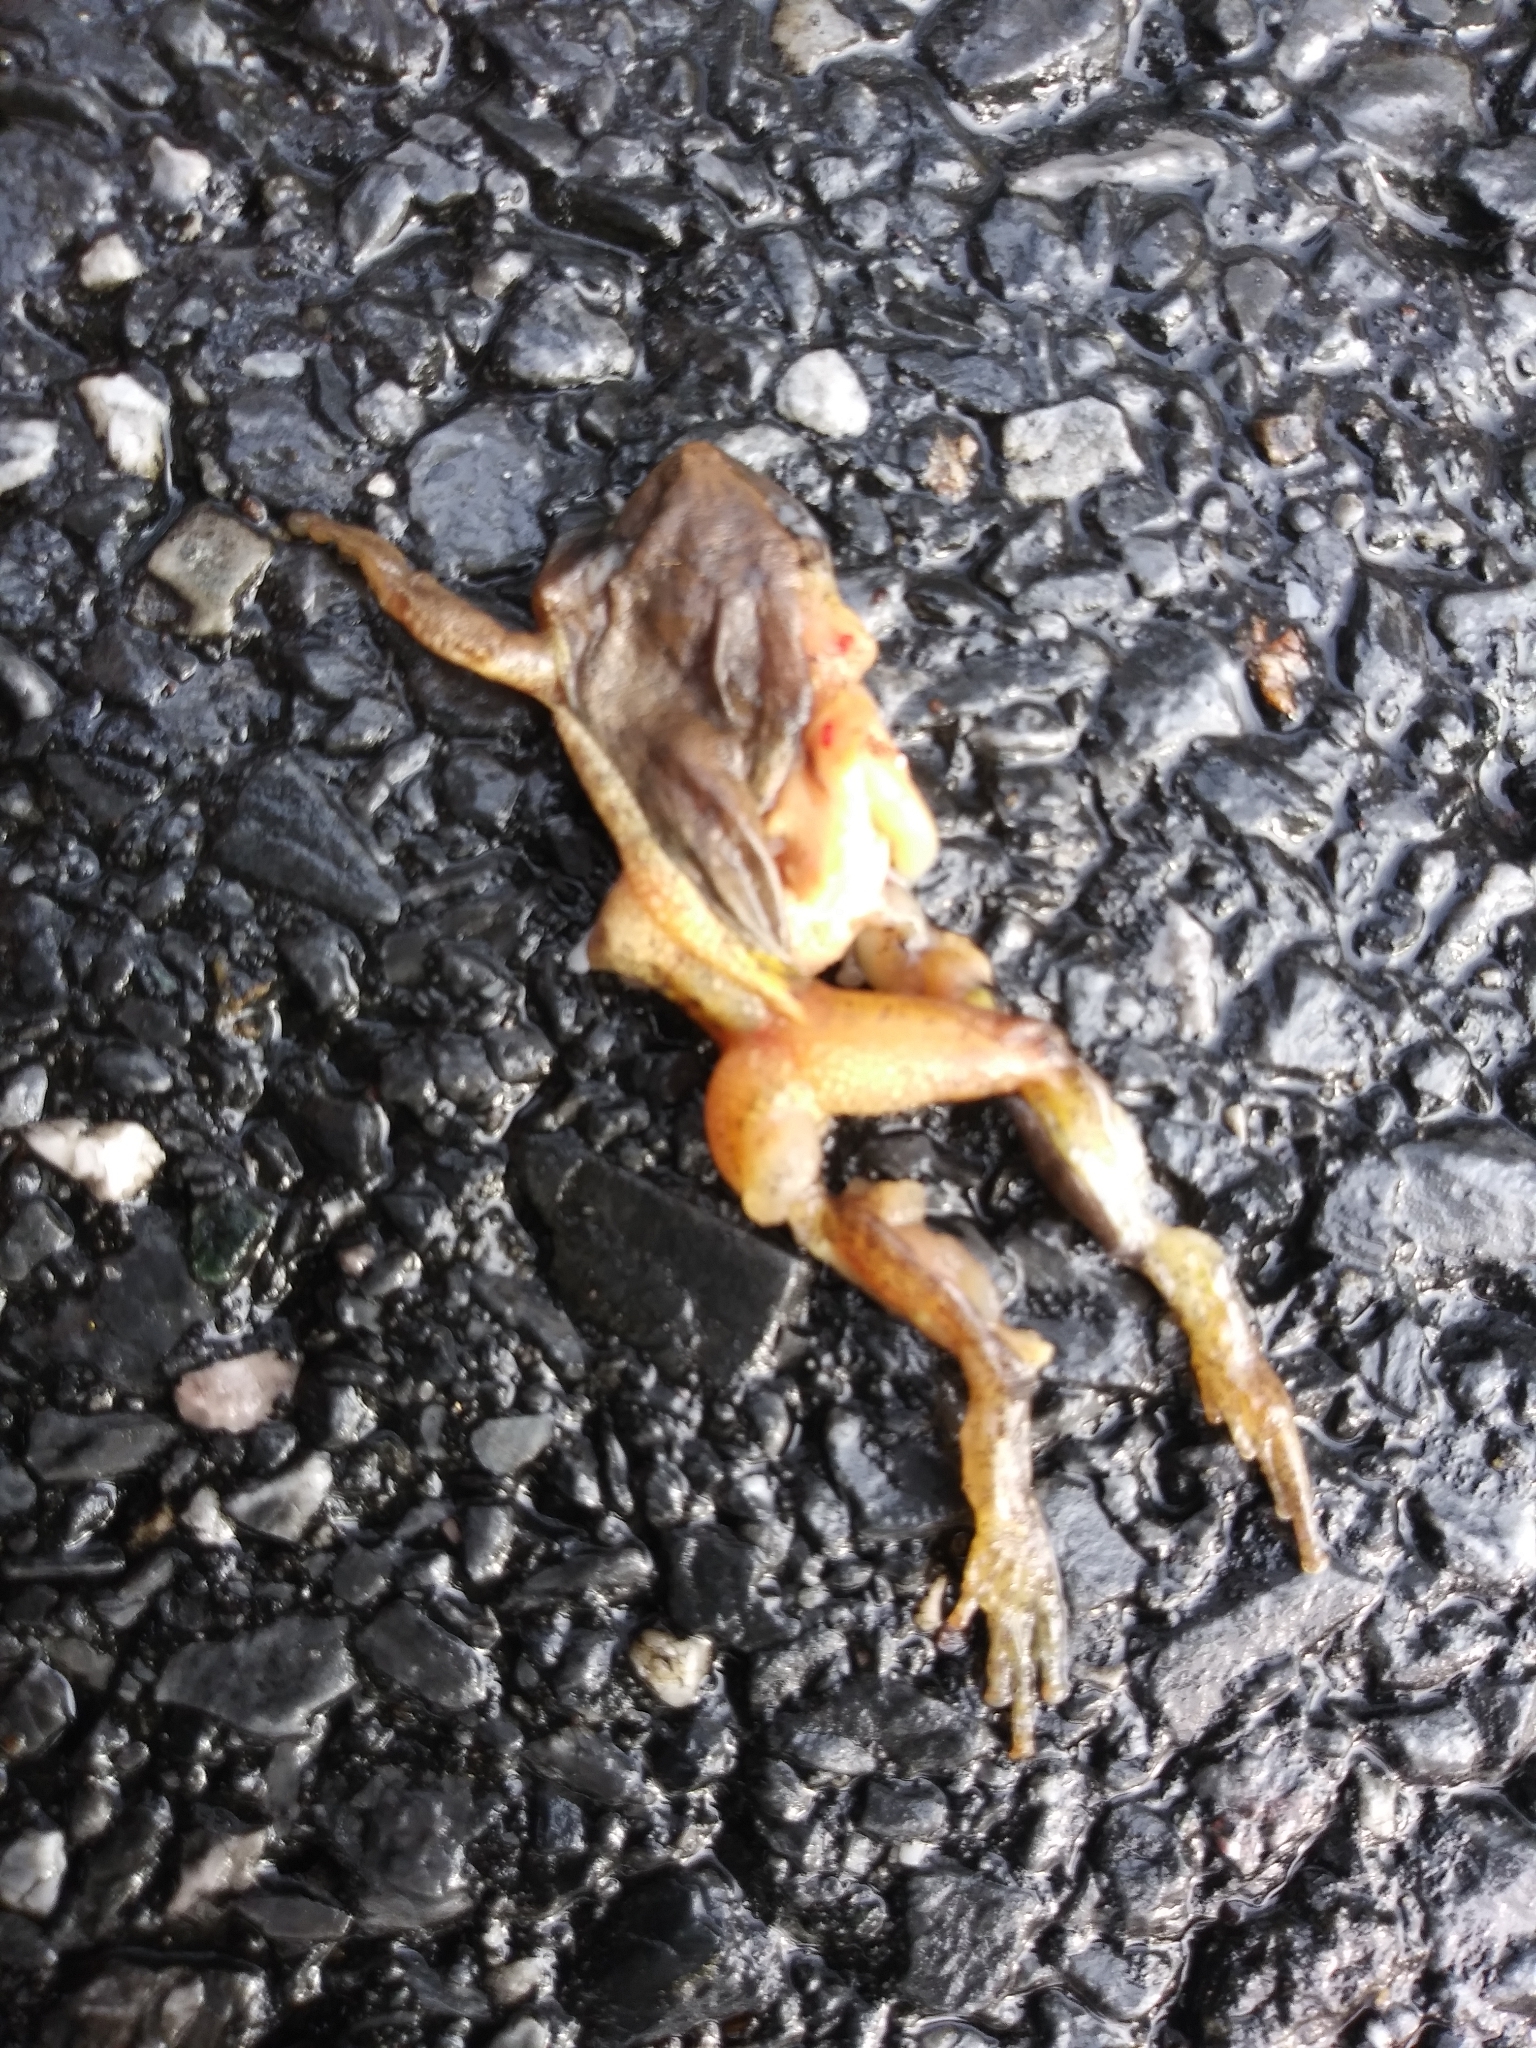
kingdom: Animalia
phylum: Chordata
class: Amphibia
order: Anura
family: Hylidae
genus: Pseudacris
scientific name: Pseudacris crucifer
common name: Spring peeper
